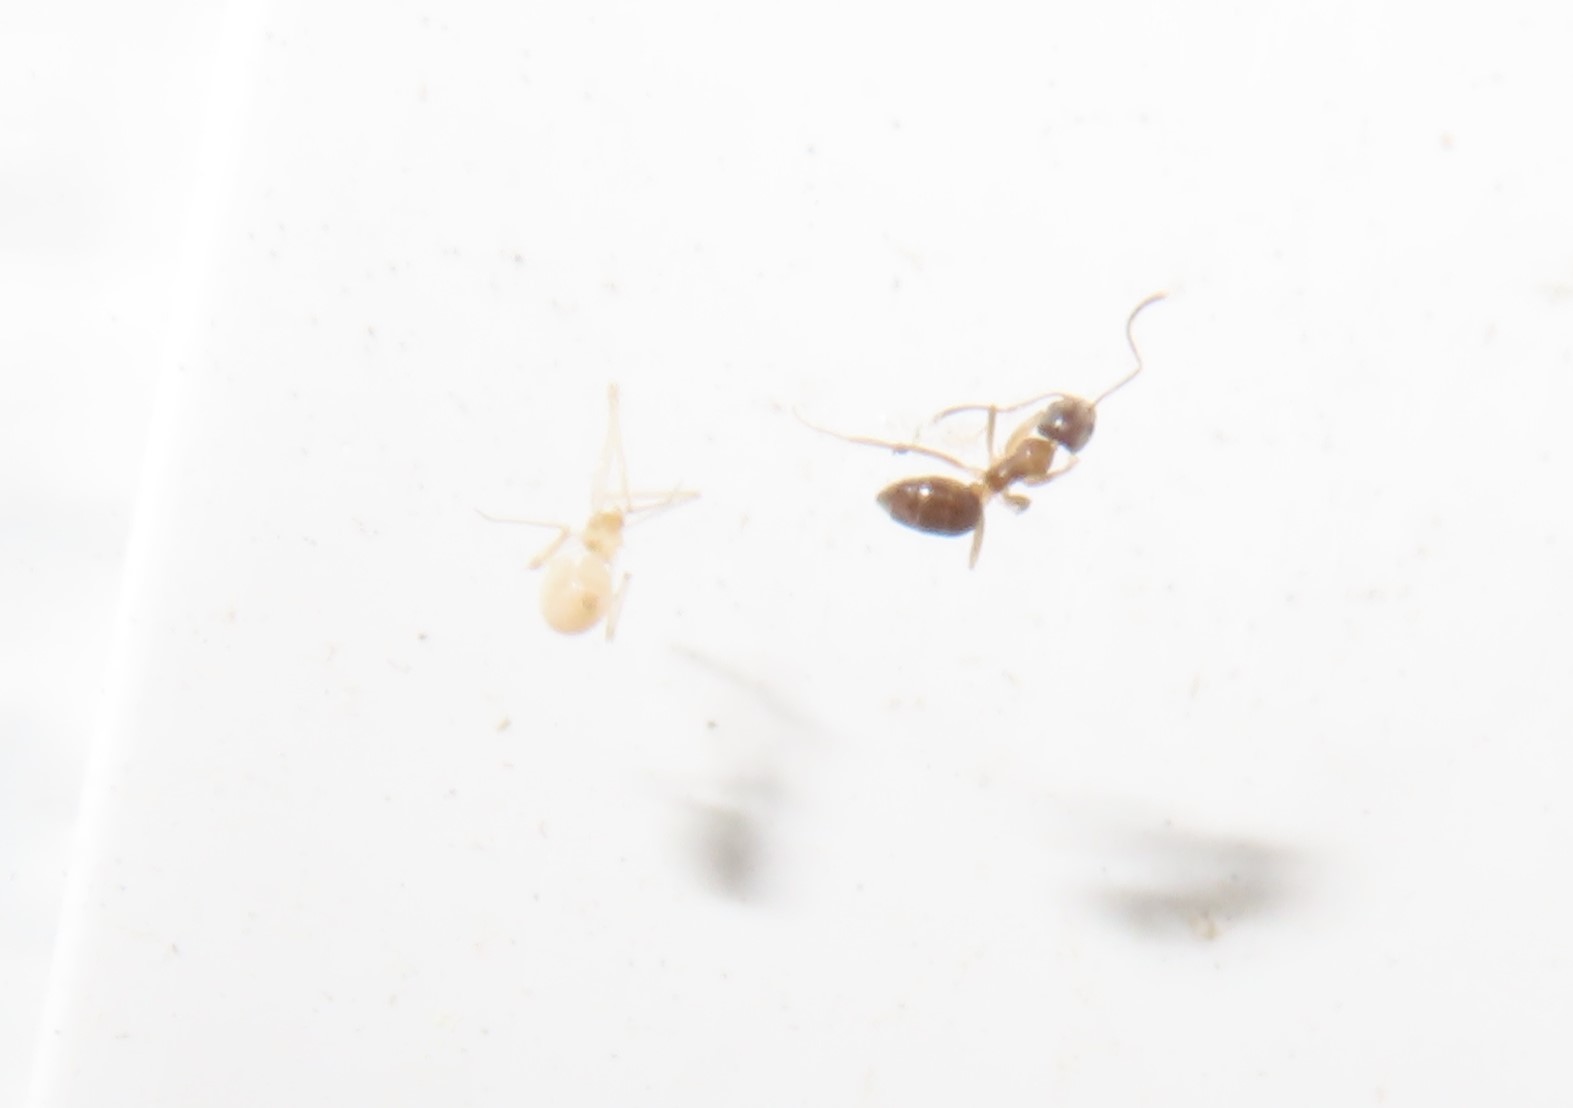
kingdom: Animalia
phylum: Arthropoda
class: Insecta
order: Hymenoptera
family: Formicidae
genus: Paratrechina
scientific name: Paratrechina flavipes
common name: Eastern asian formicine ant
